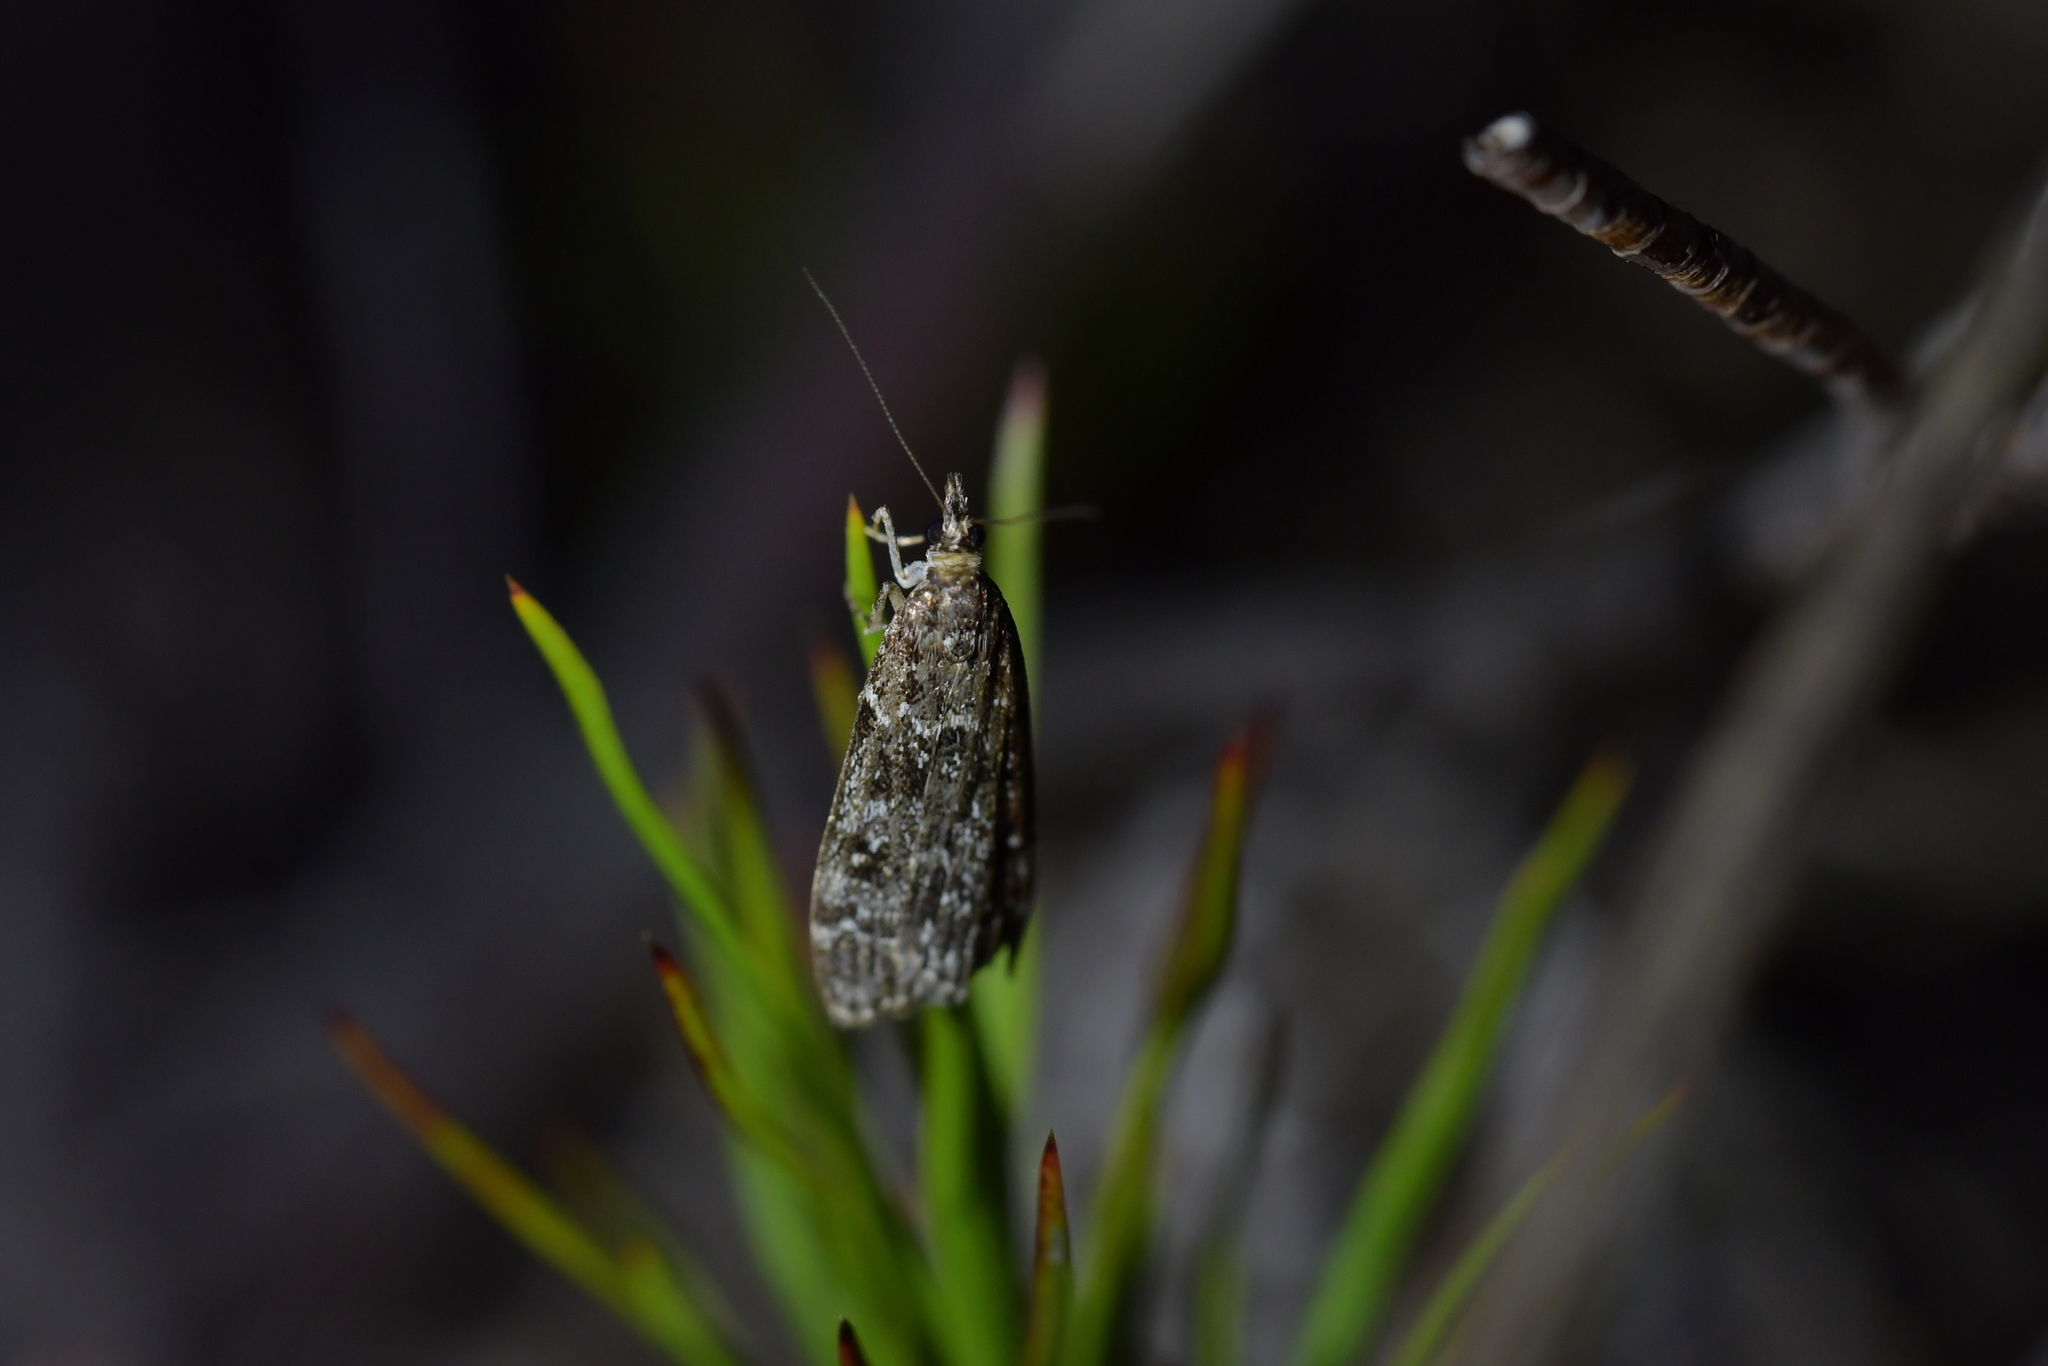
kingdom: Animalia
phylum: Arthropoda
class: Insecta
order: Lepidoptera
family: Crambidae
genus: Eudonia
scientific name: Eudonia philerga
